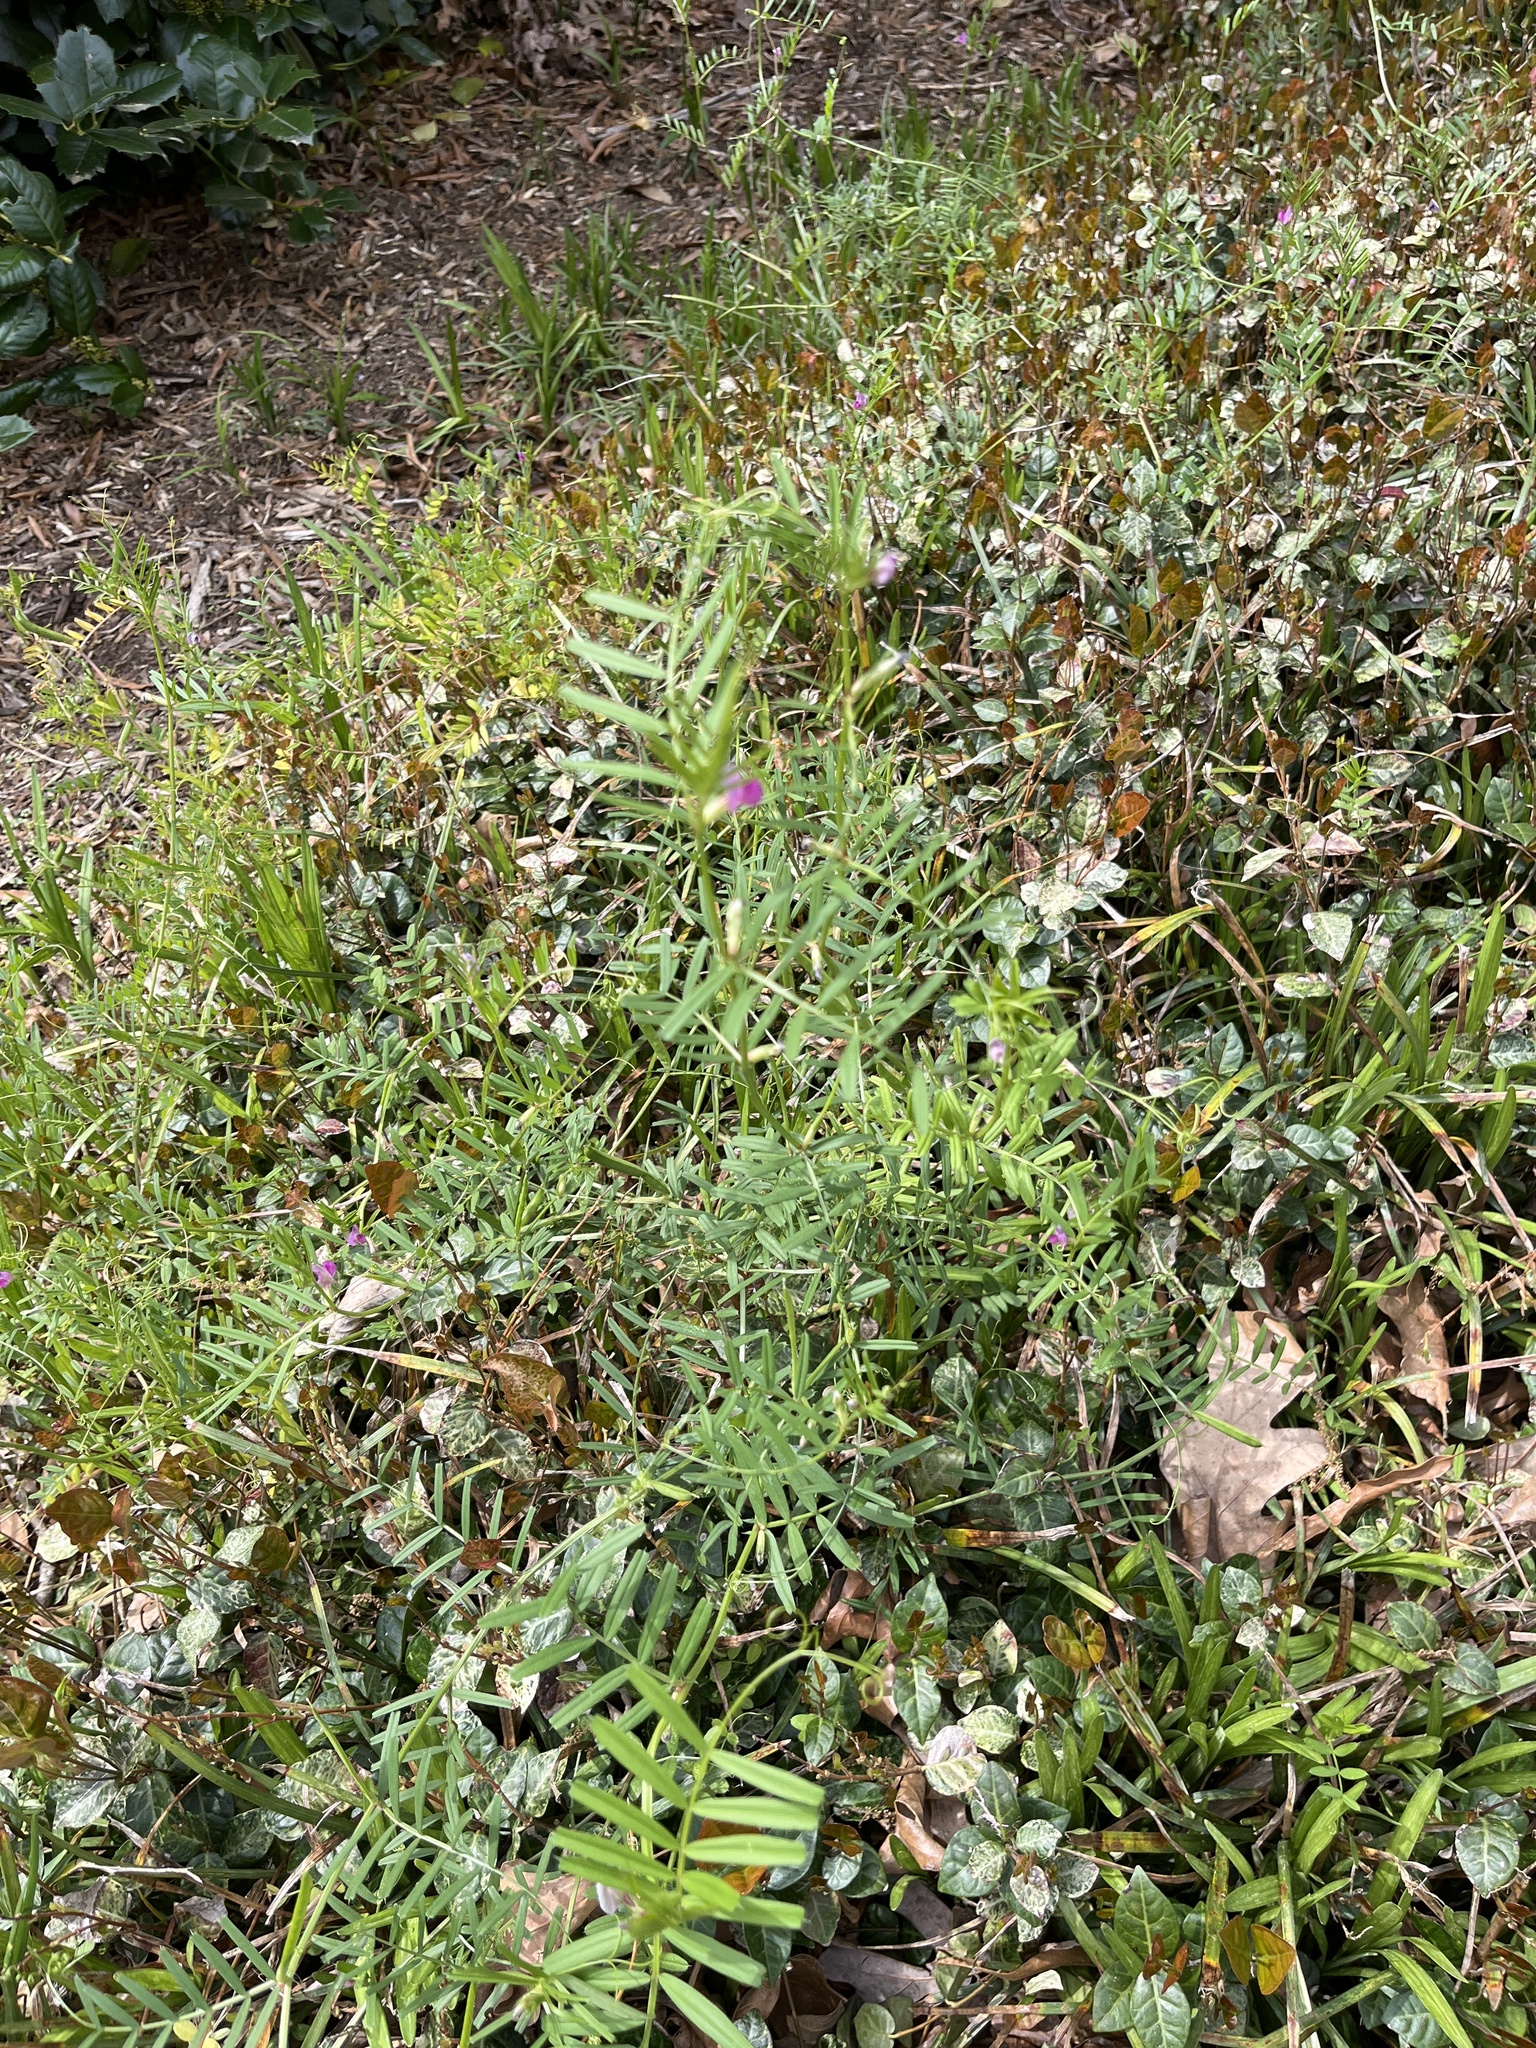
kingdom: Plantae
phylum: Tracheophyta
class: Magnoliopsida
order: Fabales
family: Fabaceae
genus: Vicia
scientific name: Vicia sativa
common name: Garden vetch
